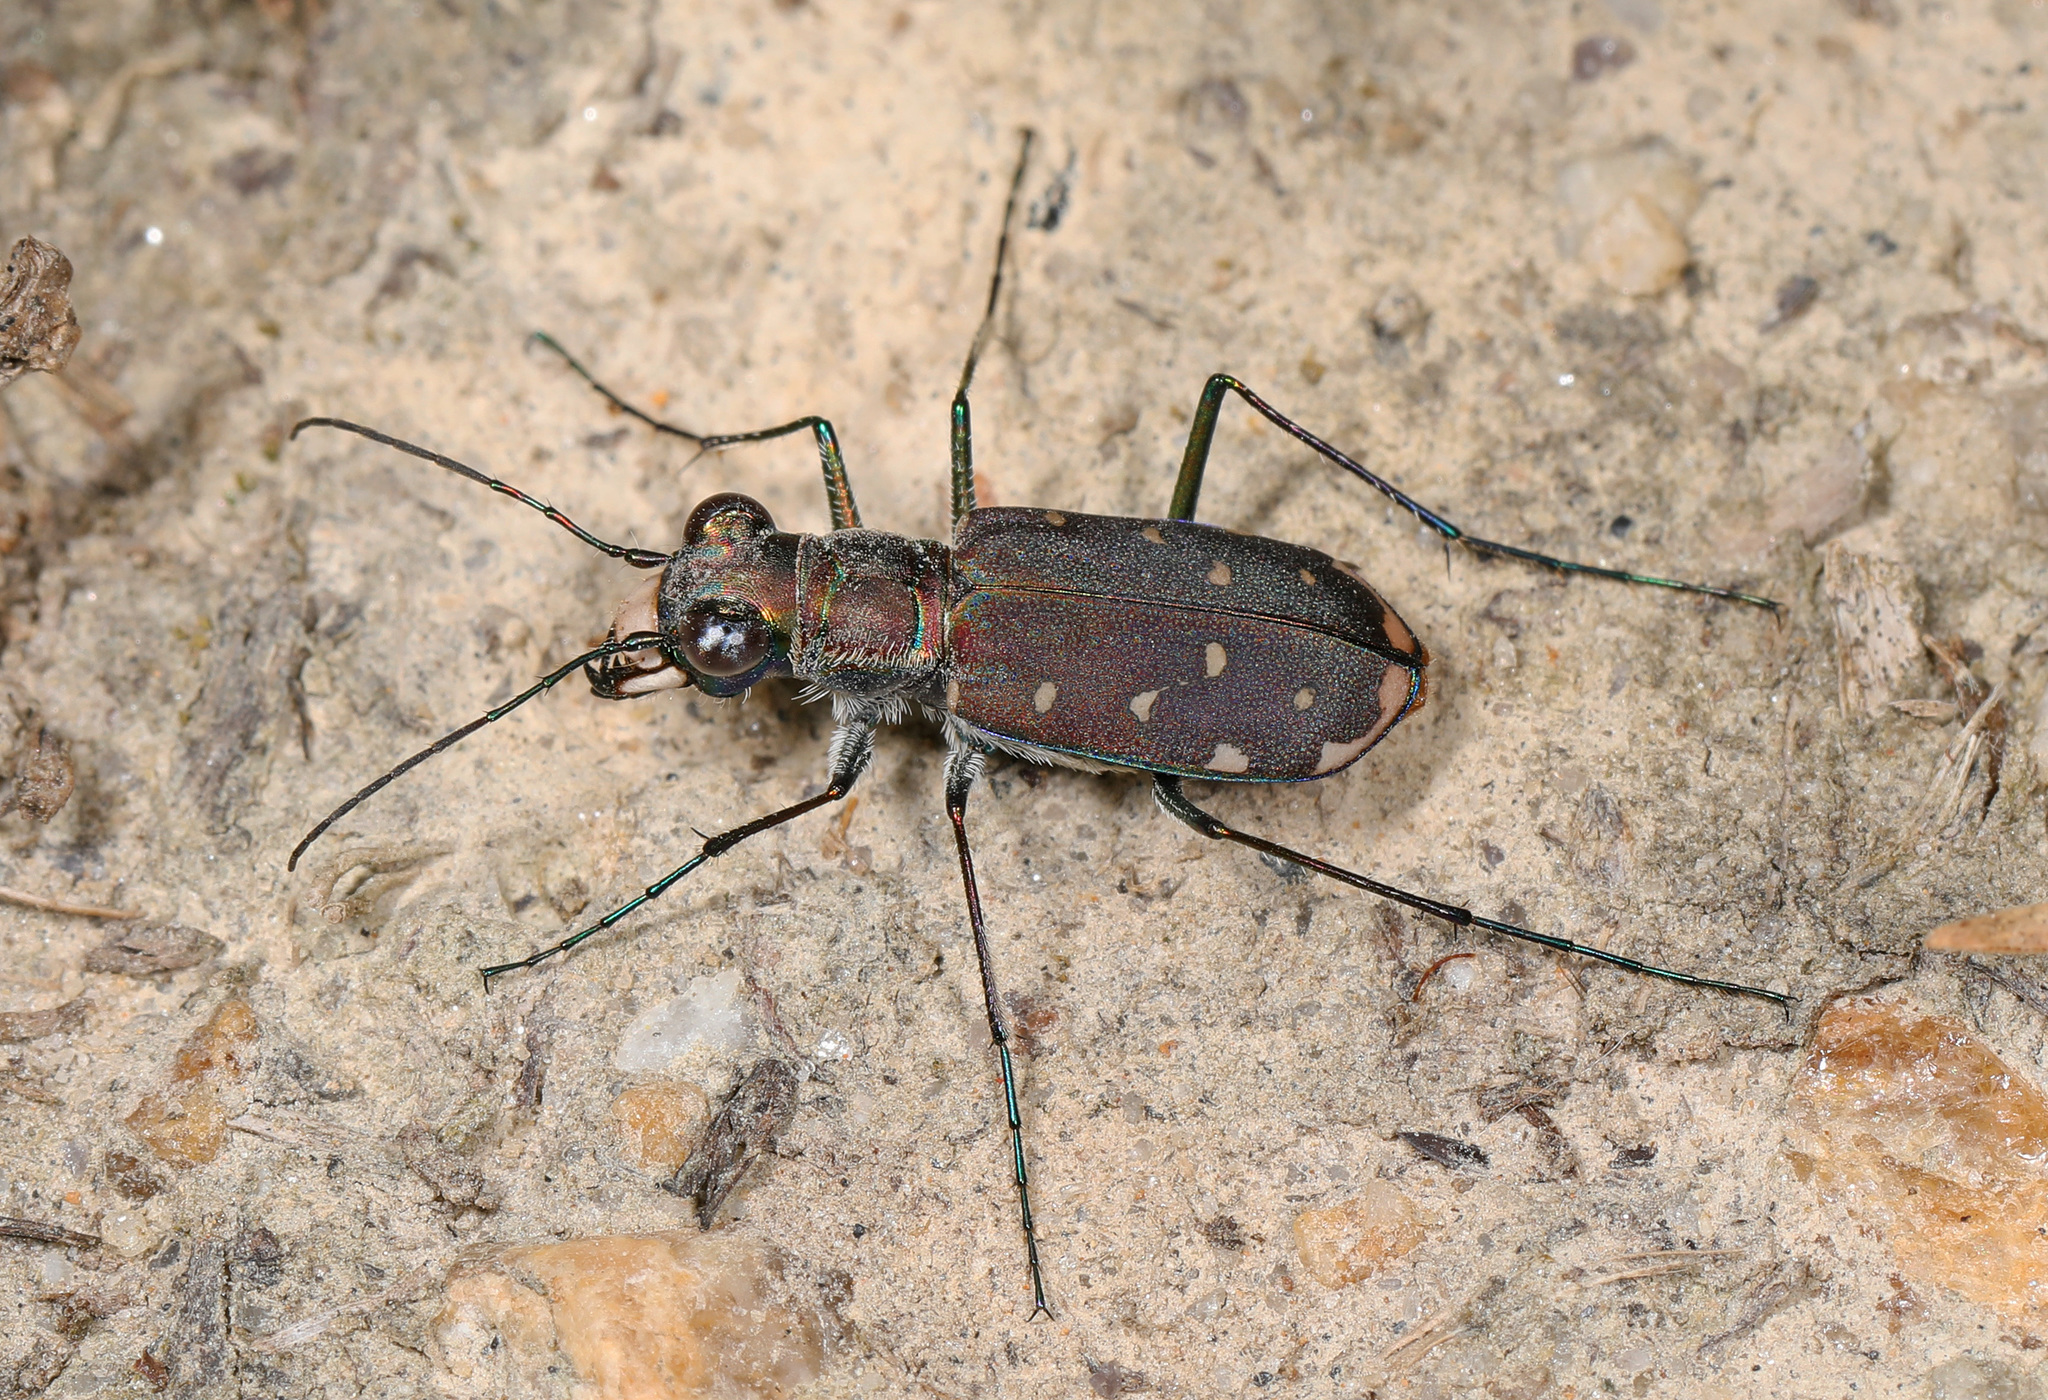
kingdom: Animalia
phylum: Arthropoda
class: Insecta
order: Coleoptera
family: Carabidae
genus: Cicindela
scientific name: Cicindela rufiventris
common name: Eastern red-bellied tiger beetle
